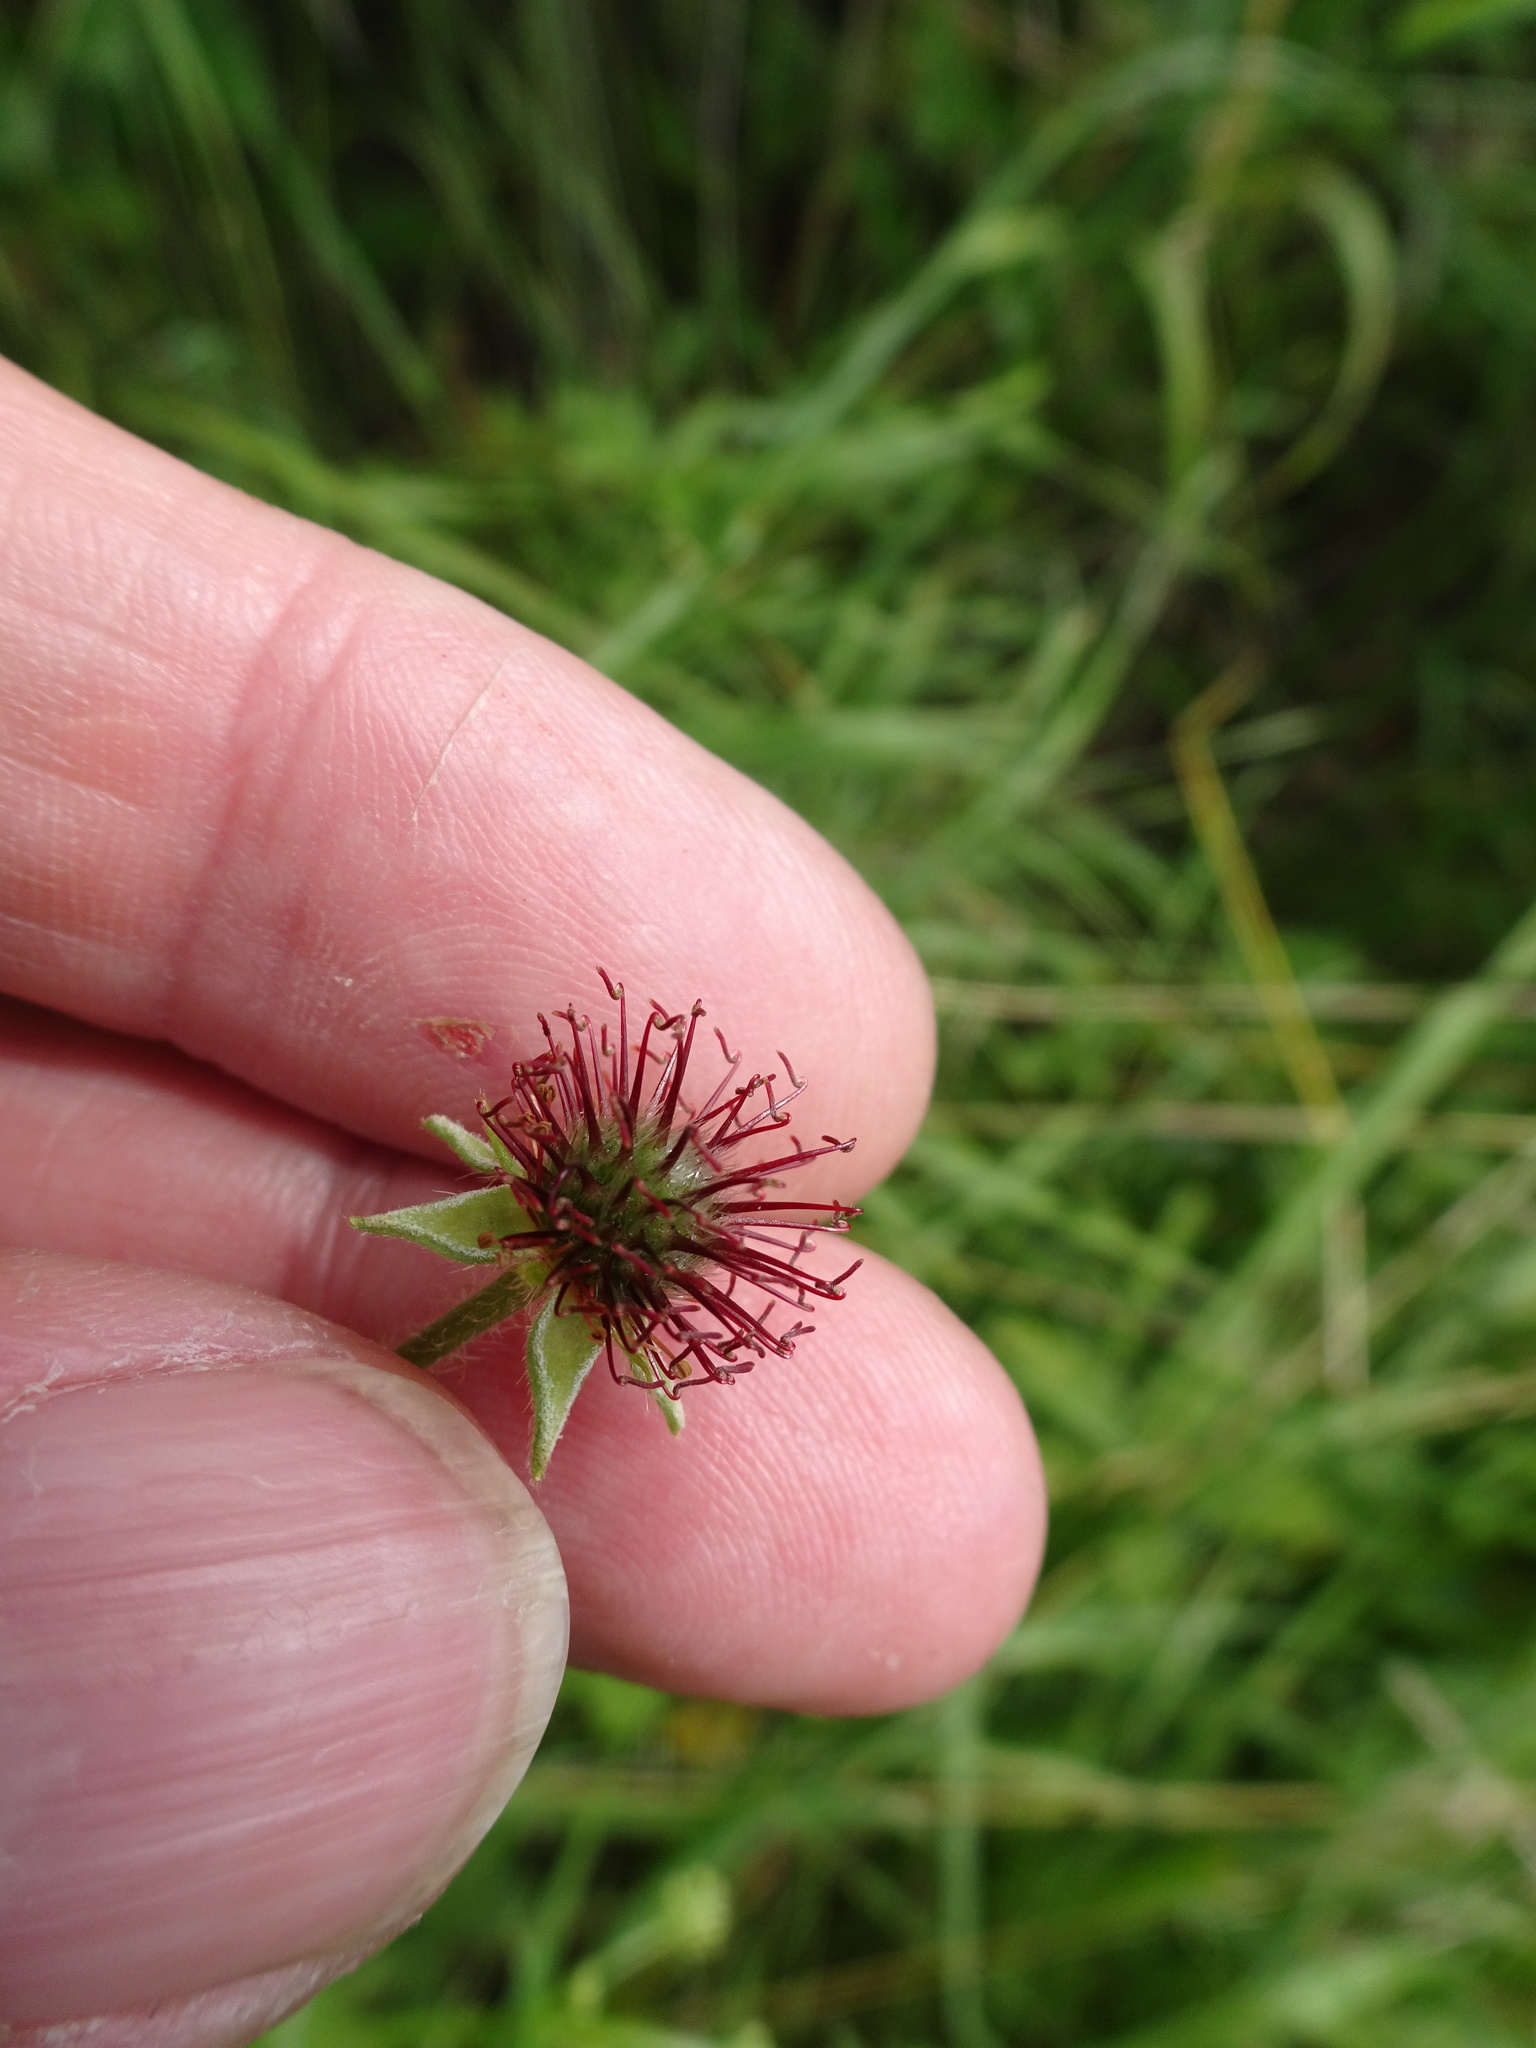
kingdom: Plantae
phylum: Tracheophyta
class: Magnoliopsida
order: Rosales
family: Rosaceae
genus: Geum
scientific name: Geum urbanum
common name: Wood avens
